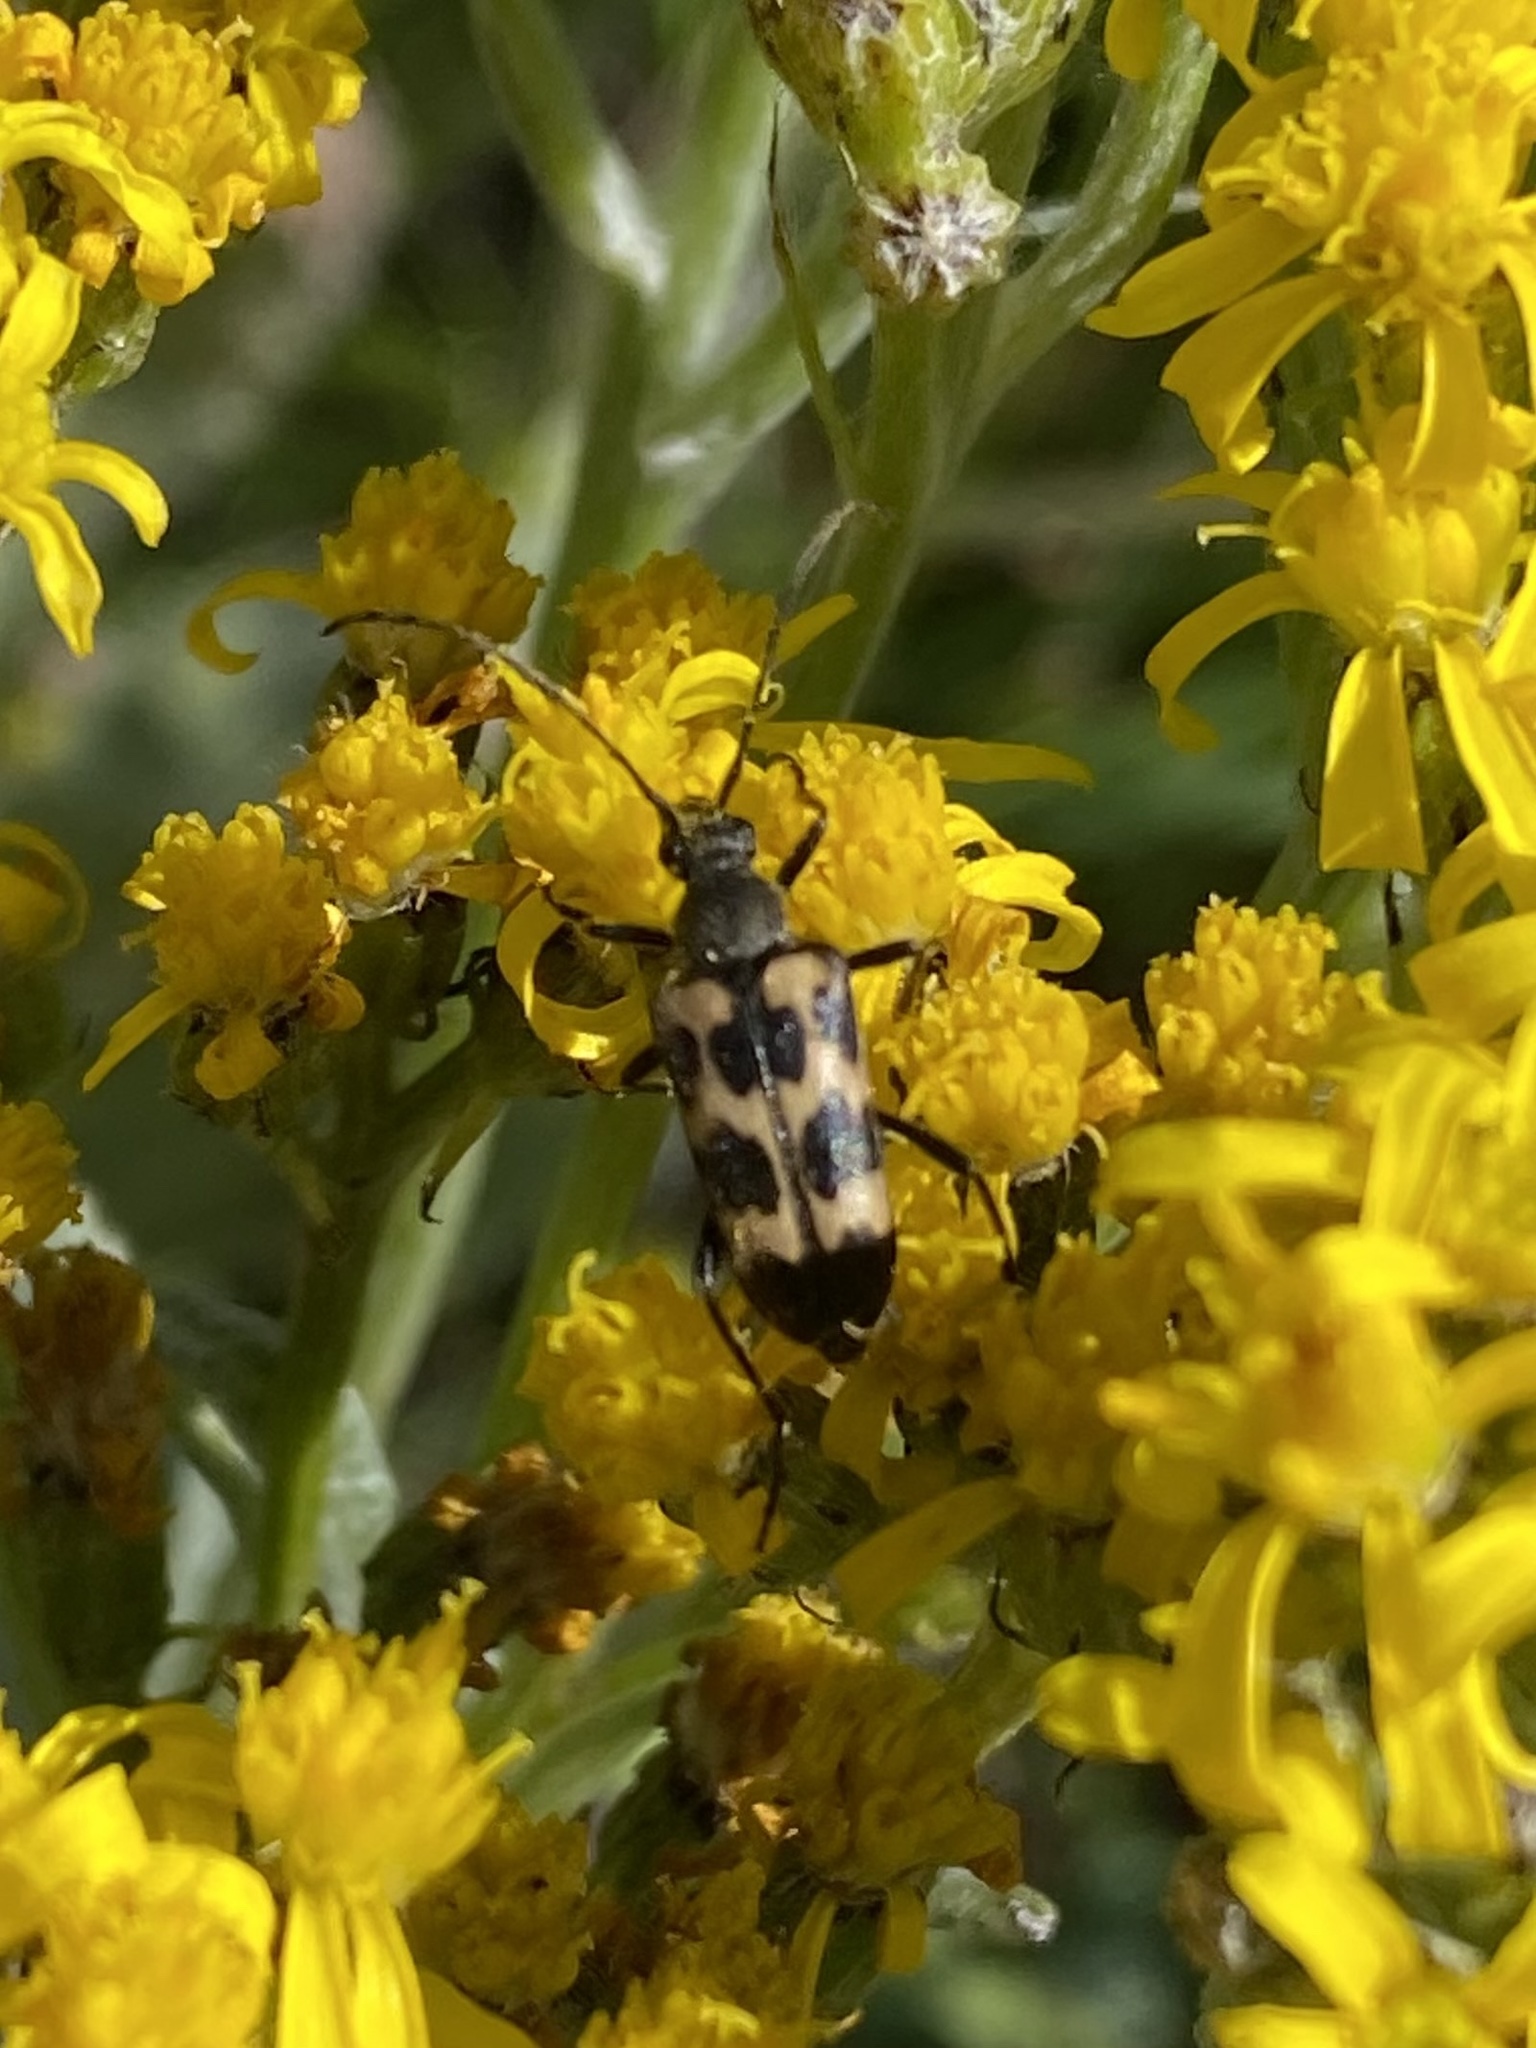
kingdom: Animalia
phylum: Arthropoda
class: Insecta
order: Coleoptera
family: Cerambycidae
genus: Judolia
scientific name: Judolia montivagans
